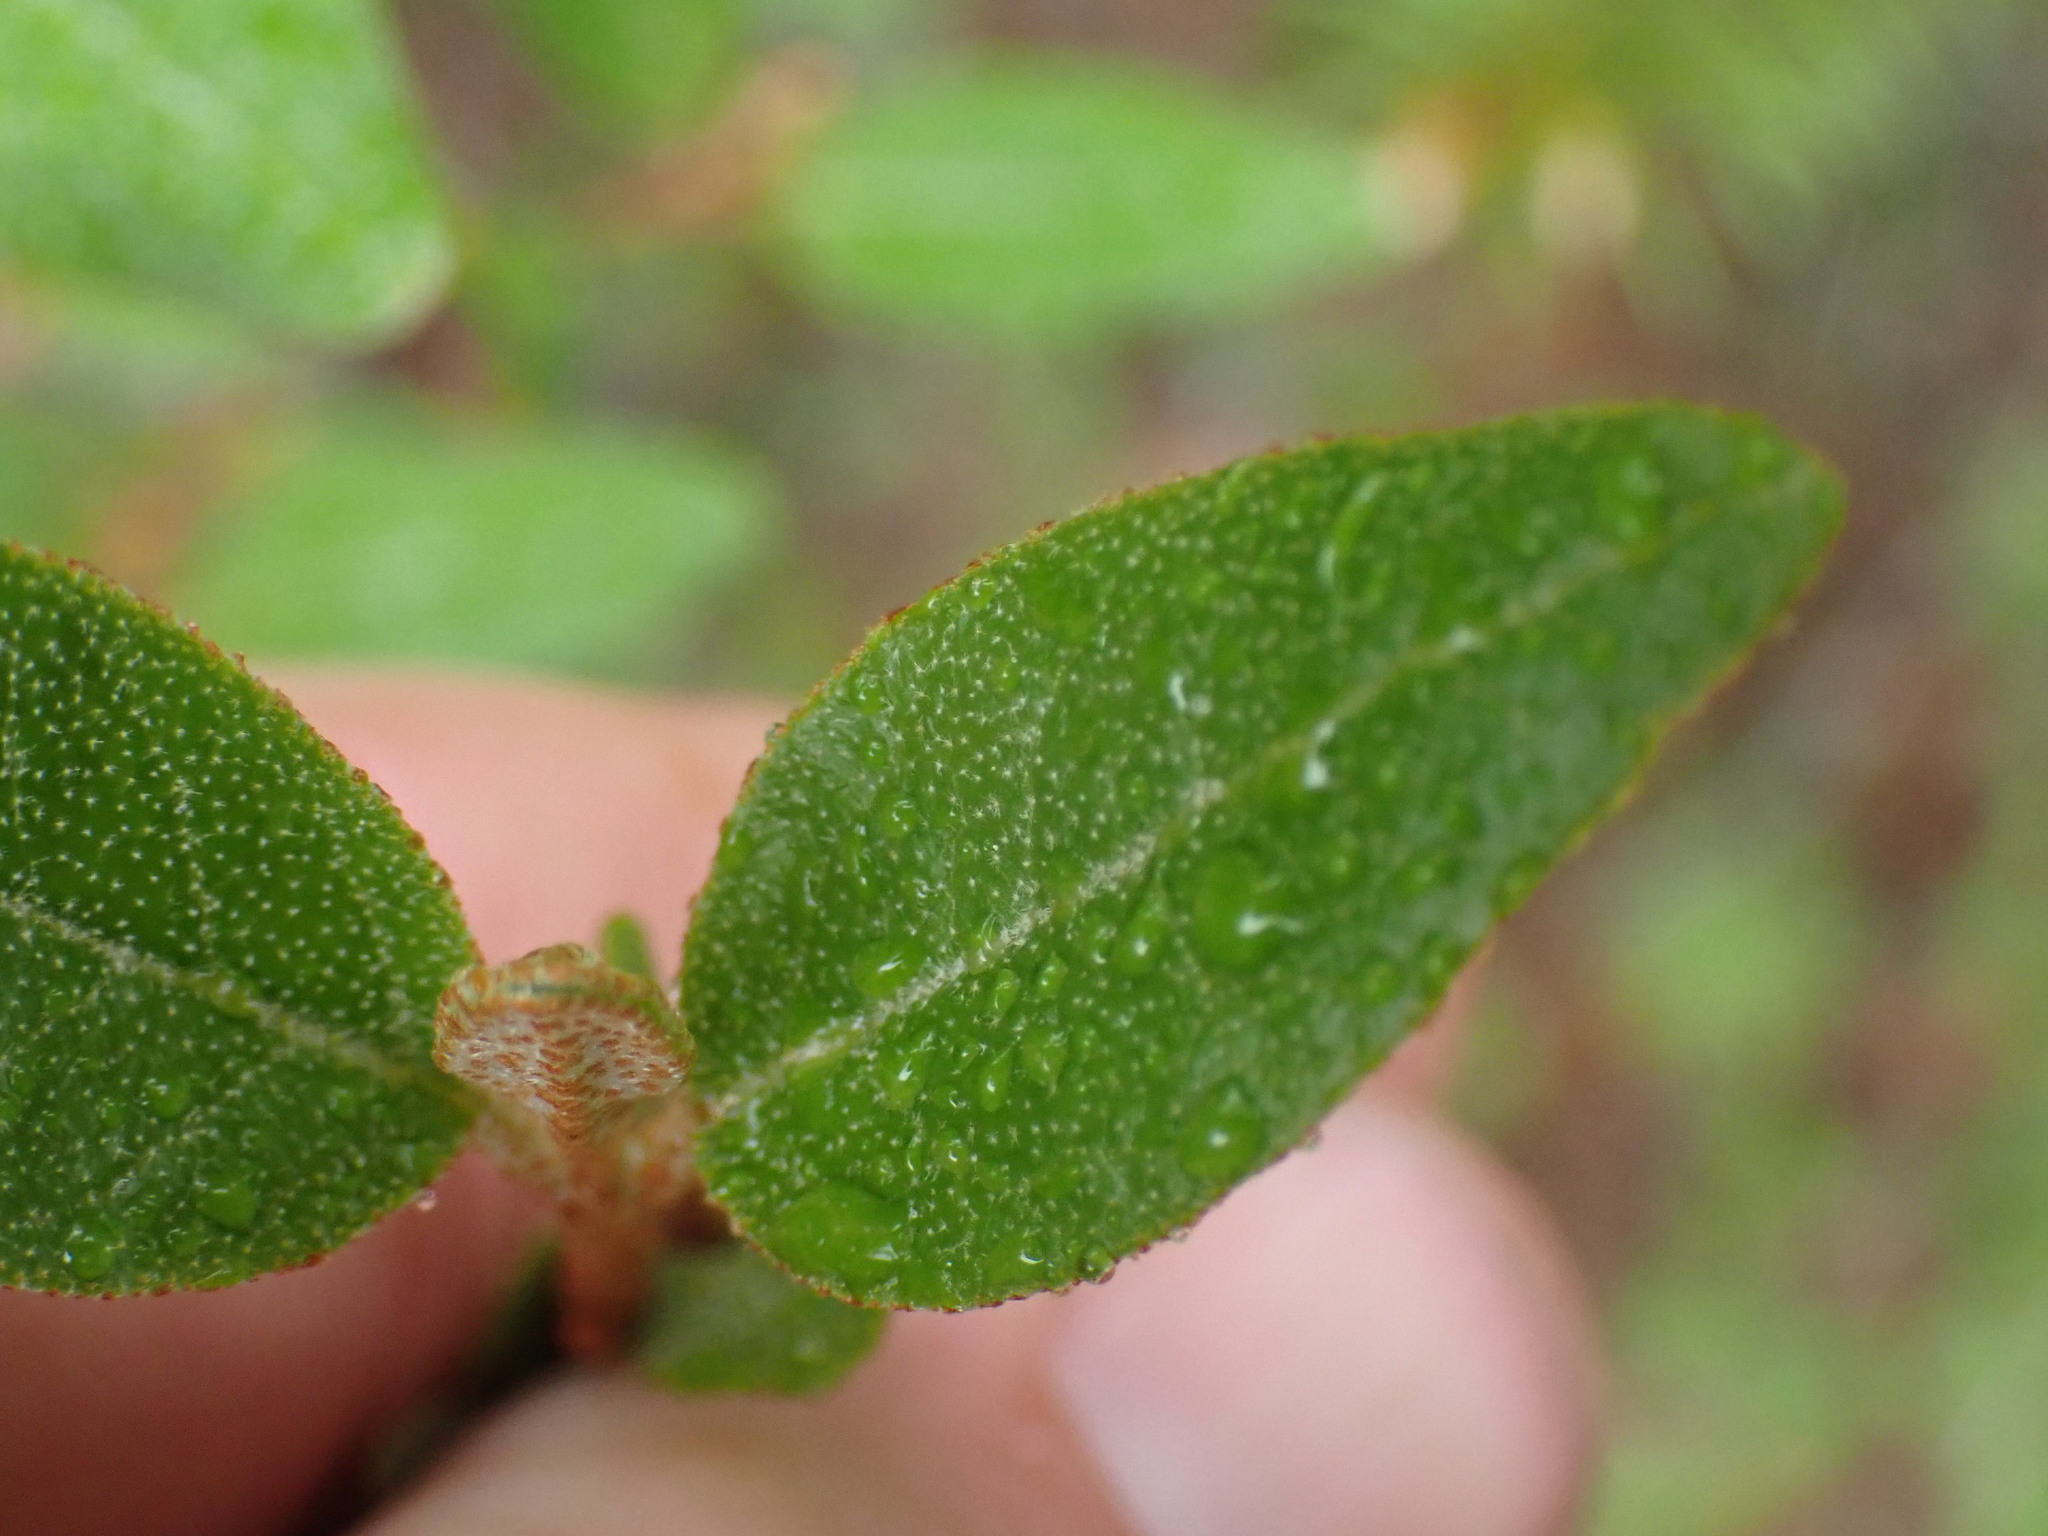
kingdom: Plantae
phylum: Tracheophyta
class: Magnoliopsida
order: Rosales
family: Elaeagnaceae
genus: Shepherdia
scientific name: Shepherdia canadensis
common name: Soapberry
